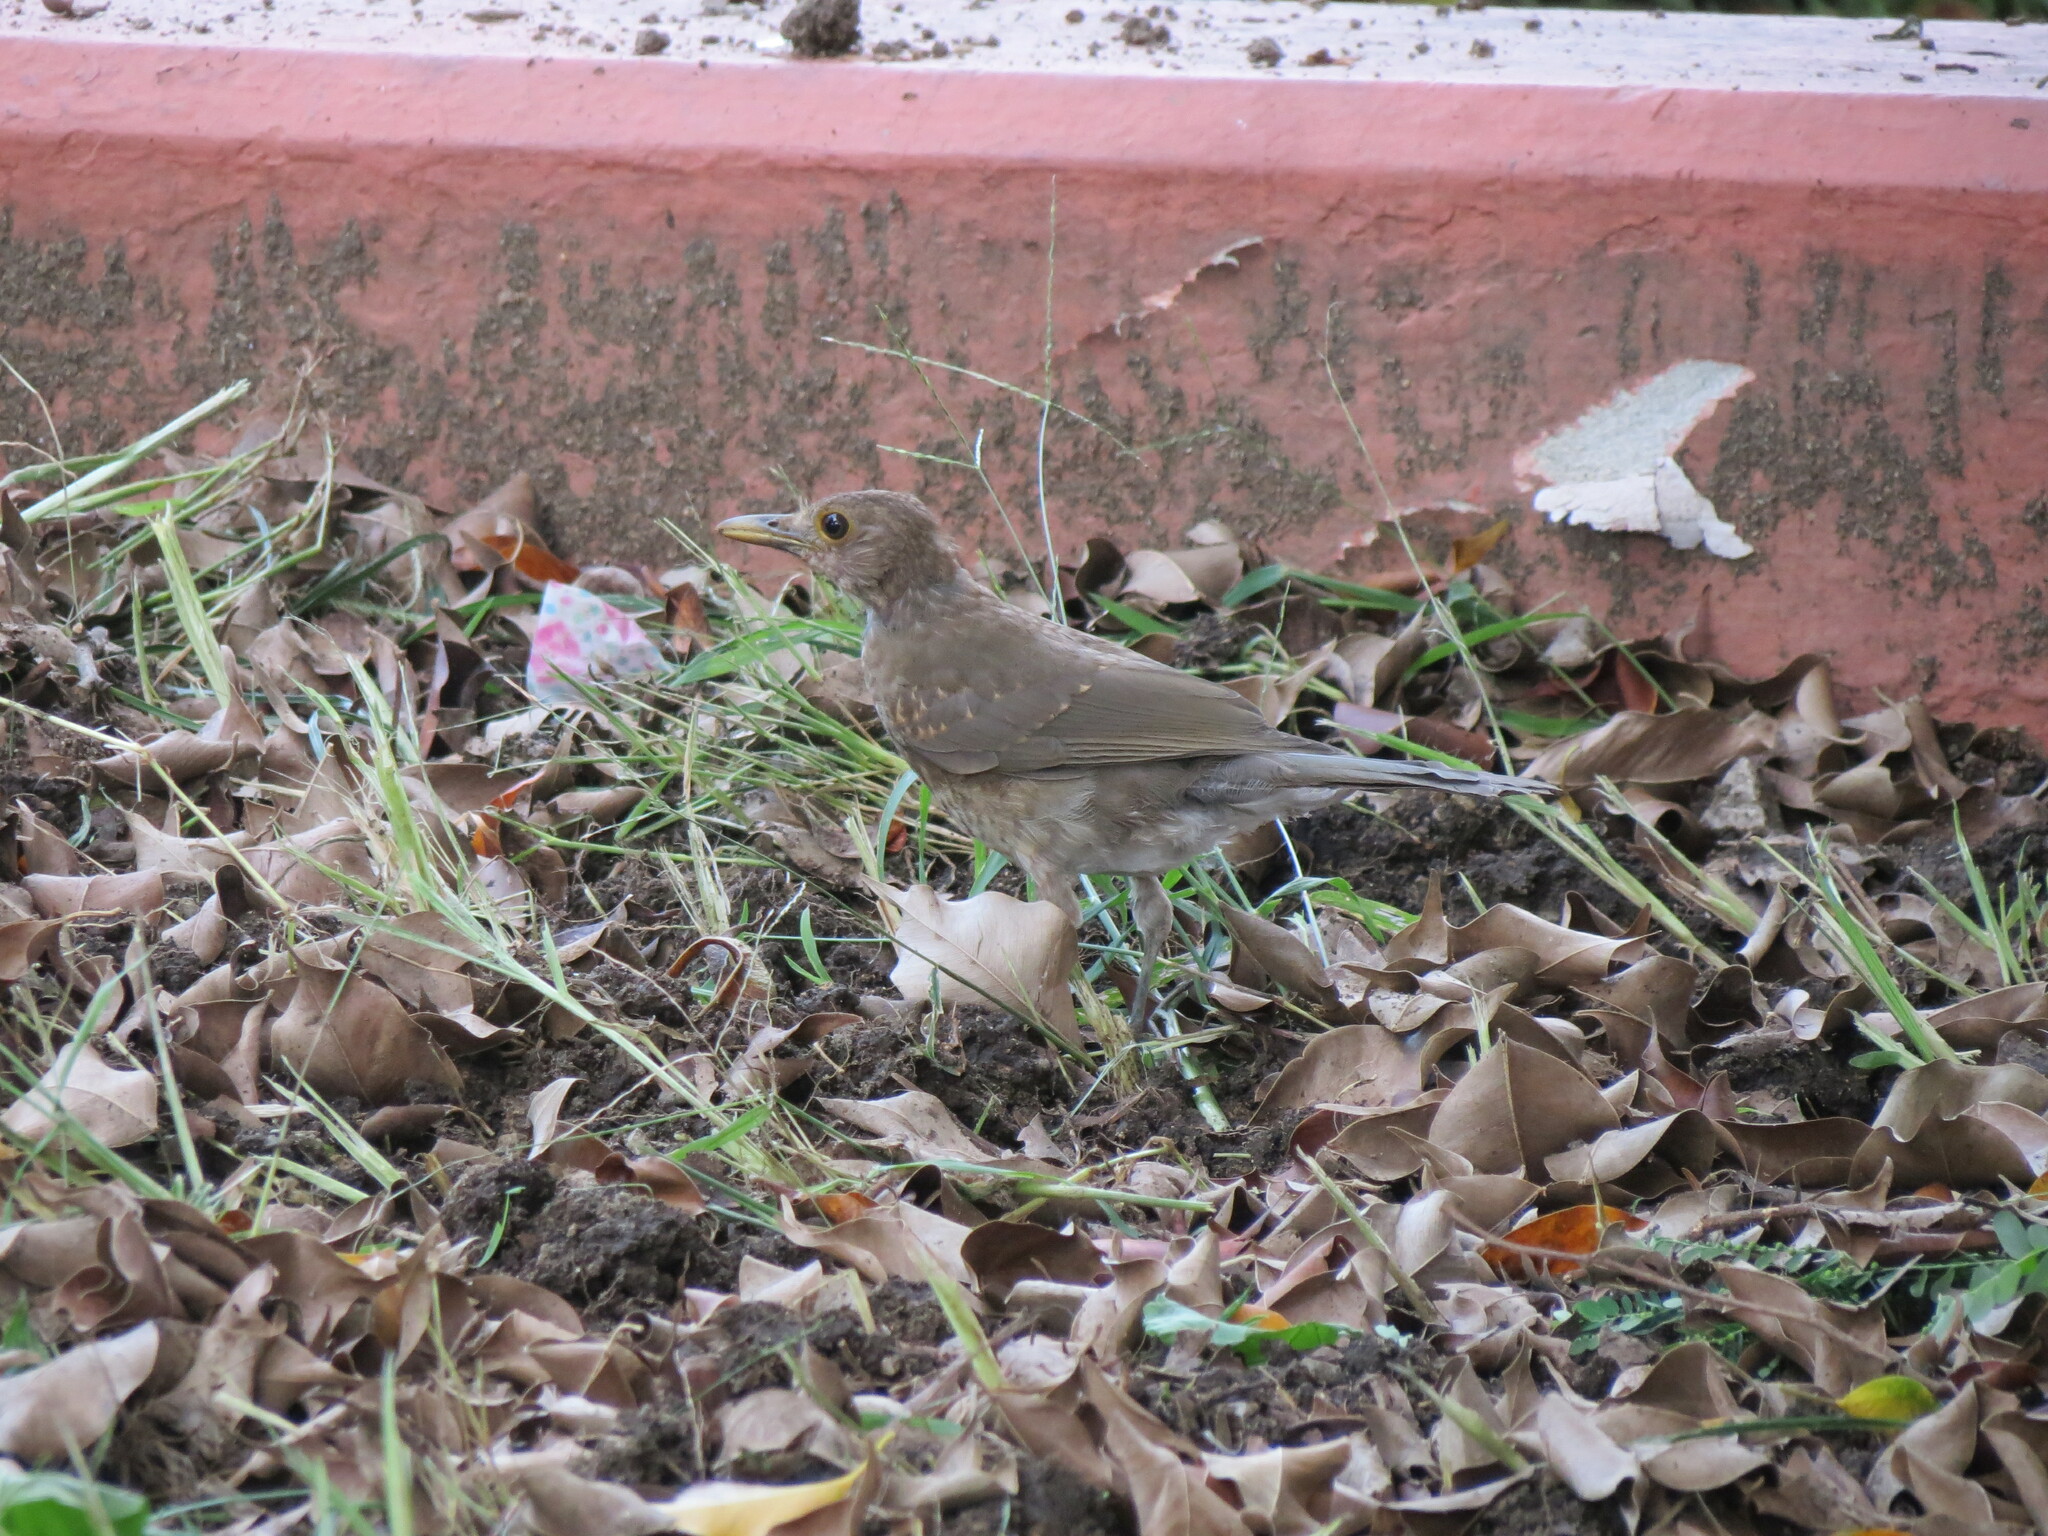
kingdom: Animalia
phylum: Chordata
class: Aves
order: Passeriformes
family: Turdidae
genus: Turdus
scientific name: Turdus maculirostris
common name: Ecuadorian thrush
